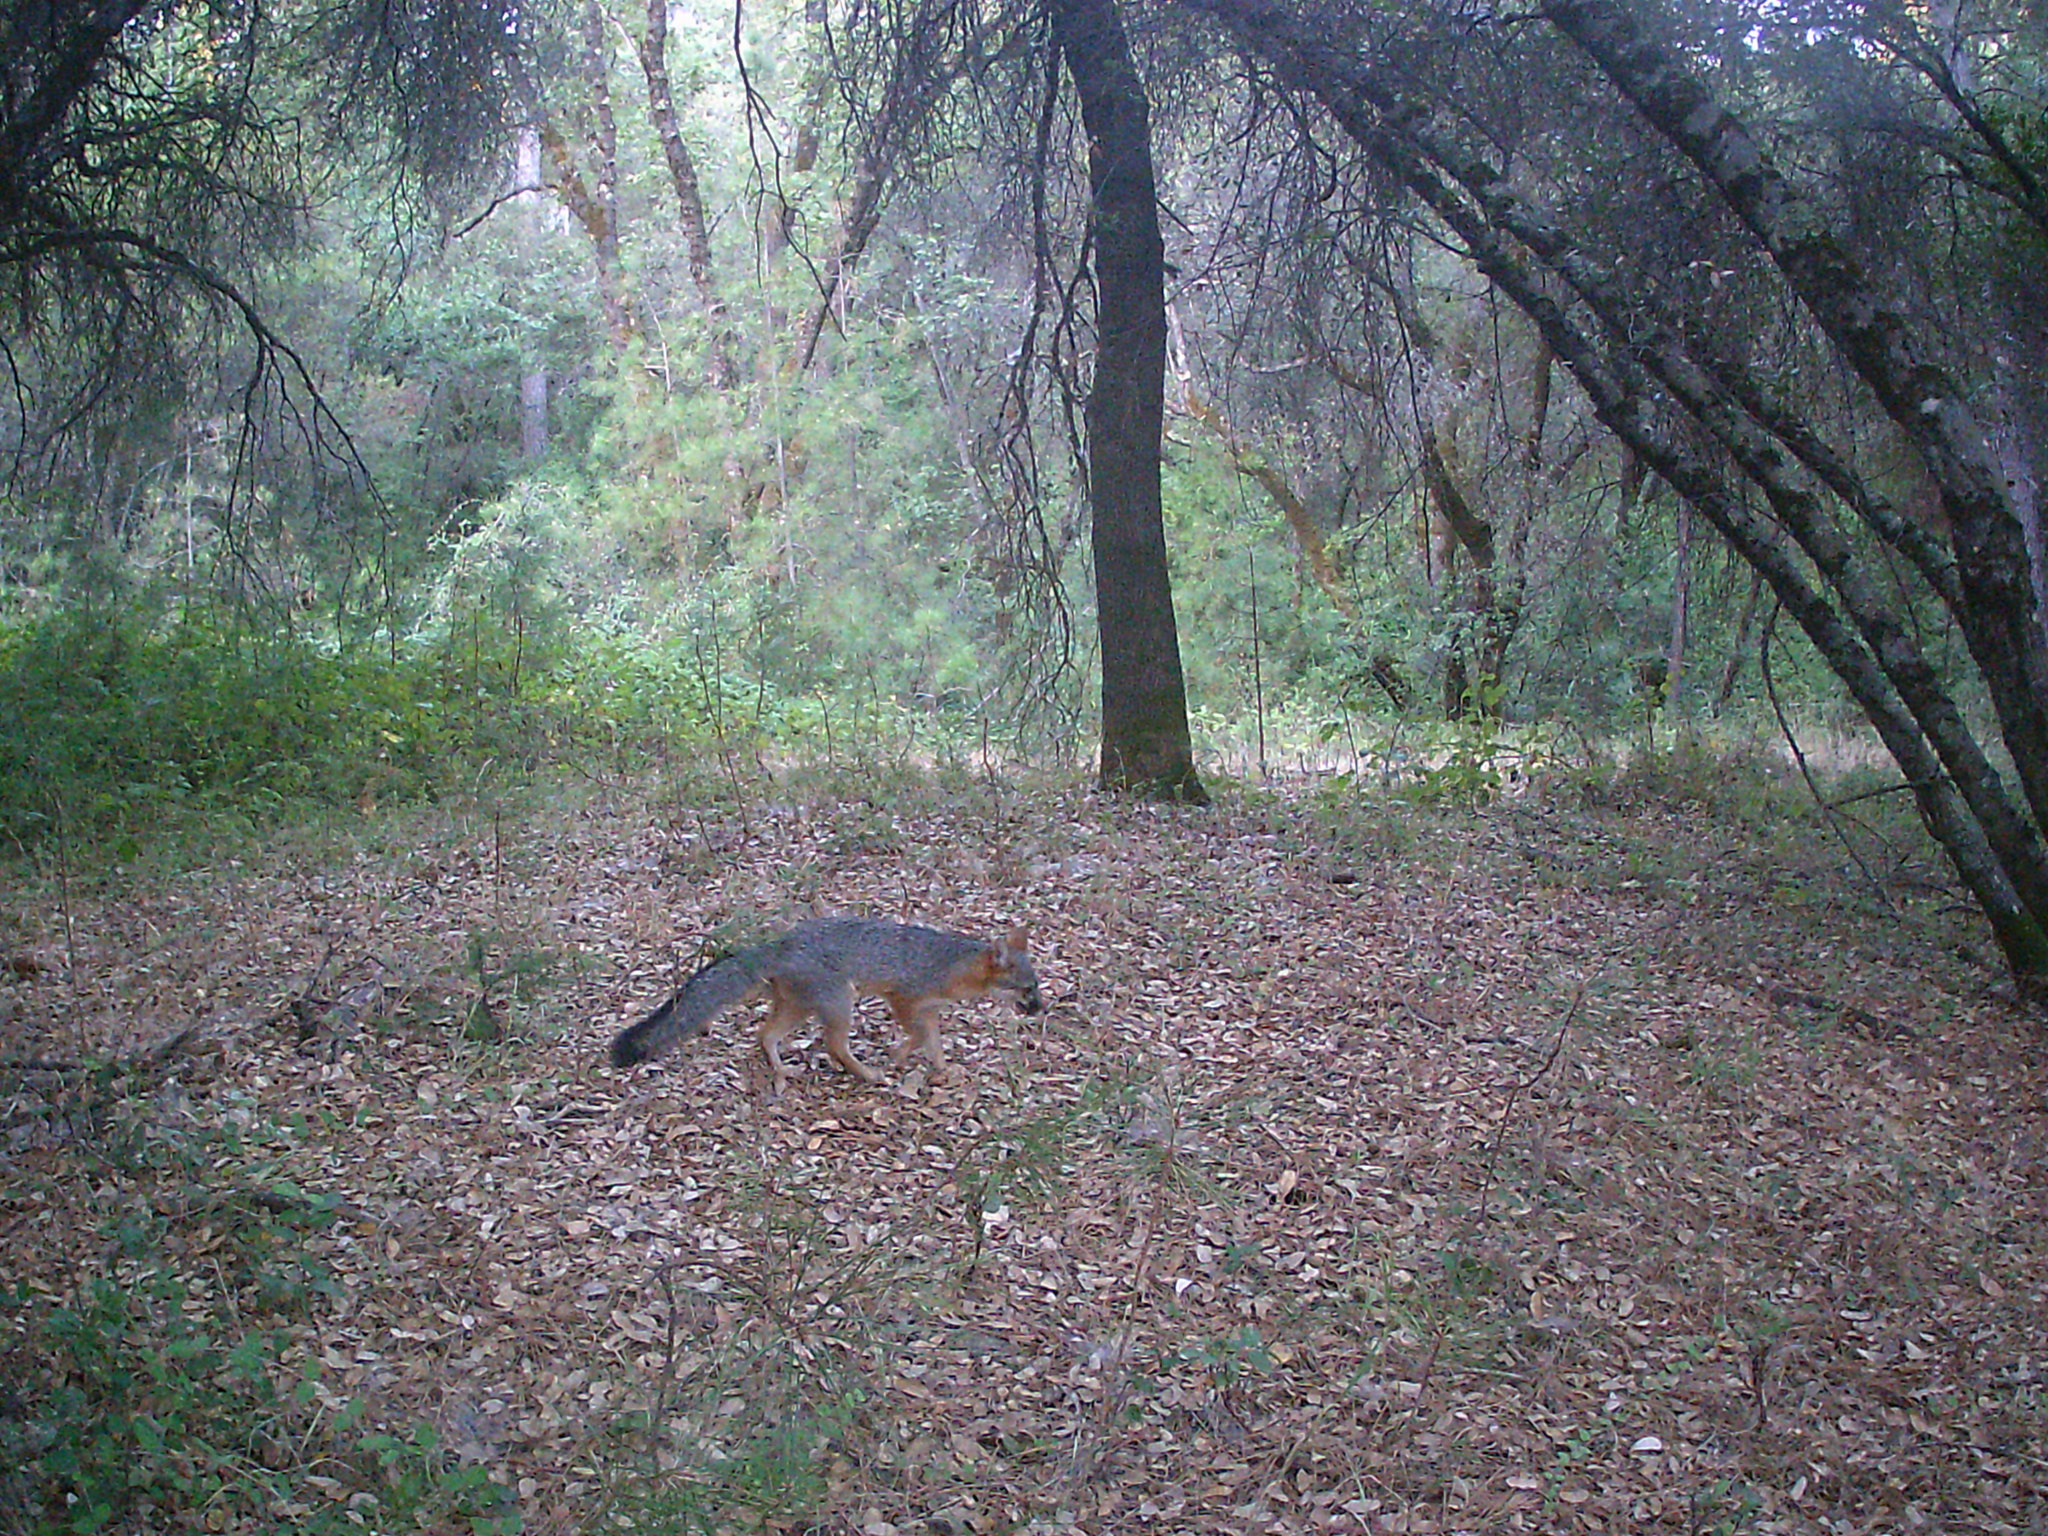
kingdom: Animalia
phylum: Chordata
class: Mammalia
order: Carnivora
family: Canidae
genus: Urocyon
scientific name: Urocyon cinereoargenteus
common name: Gray fox
